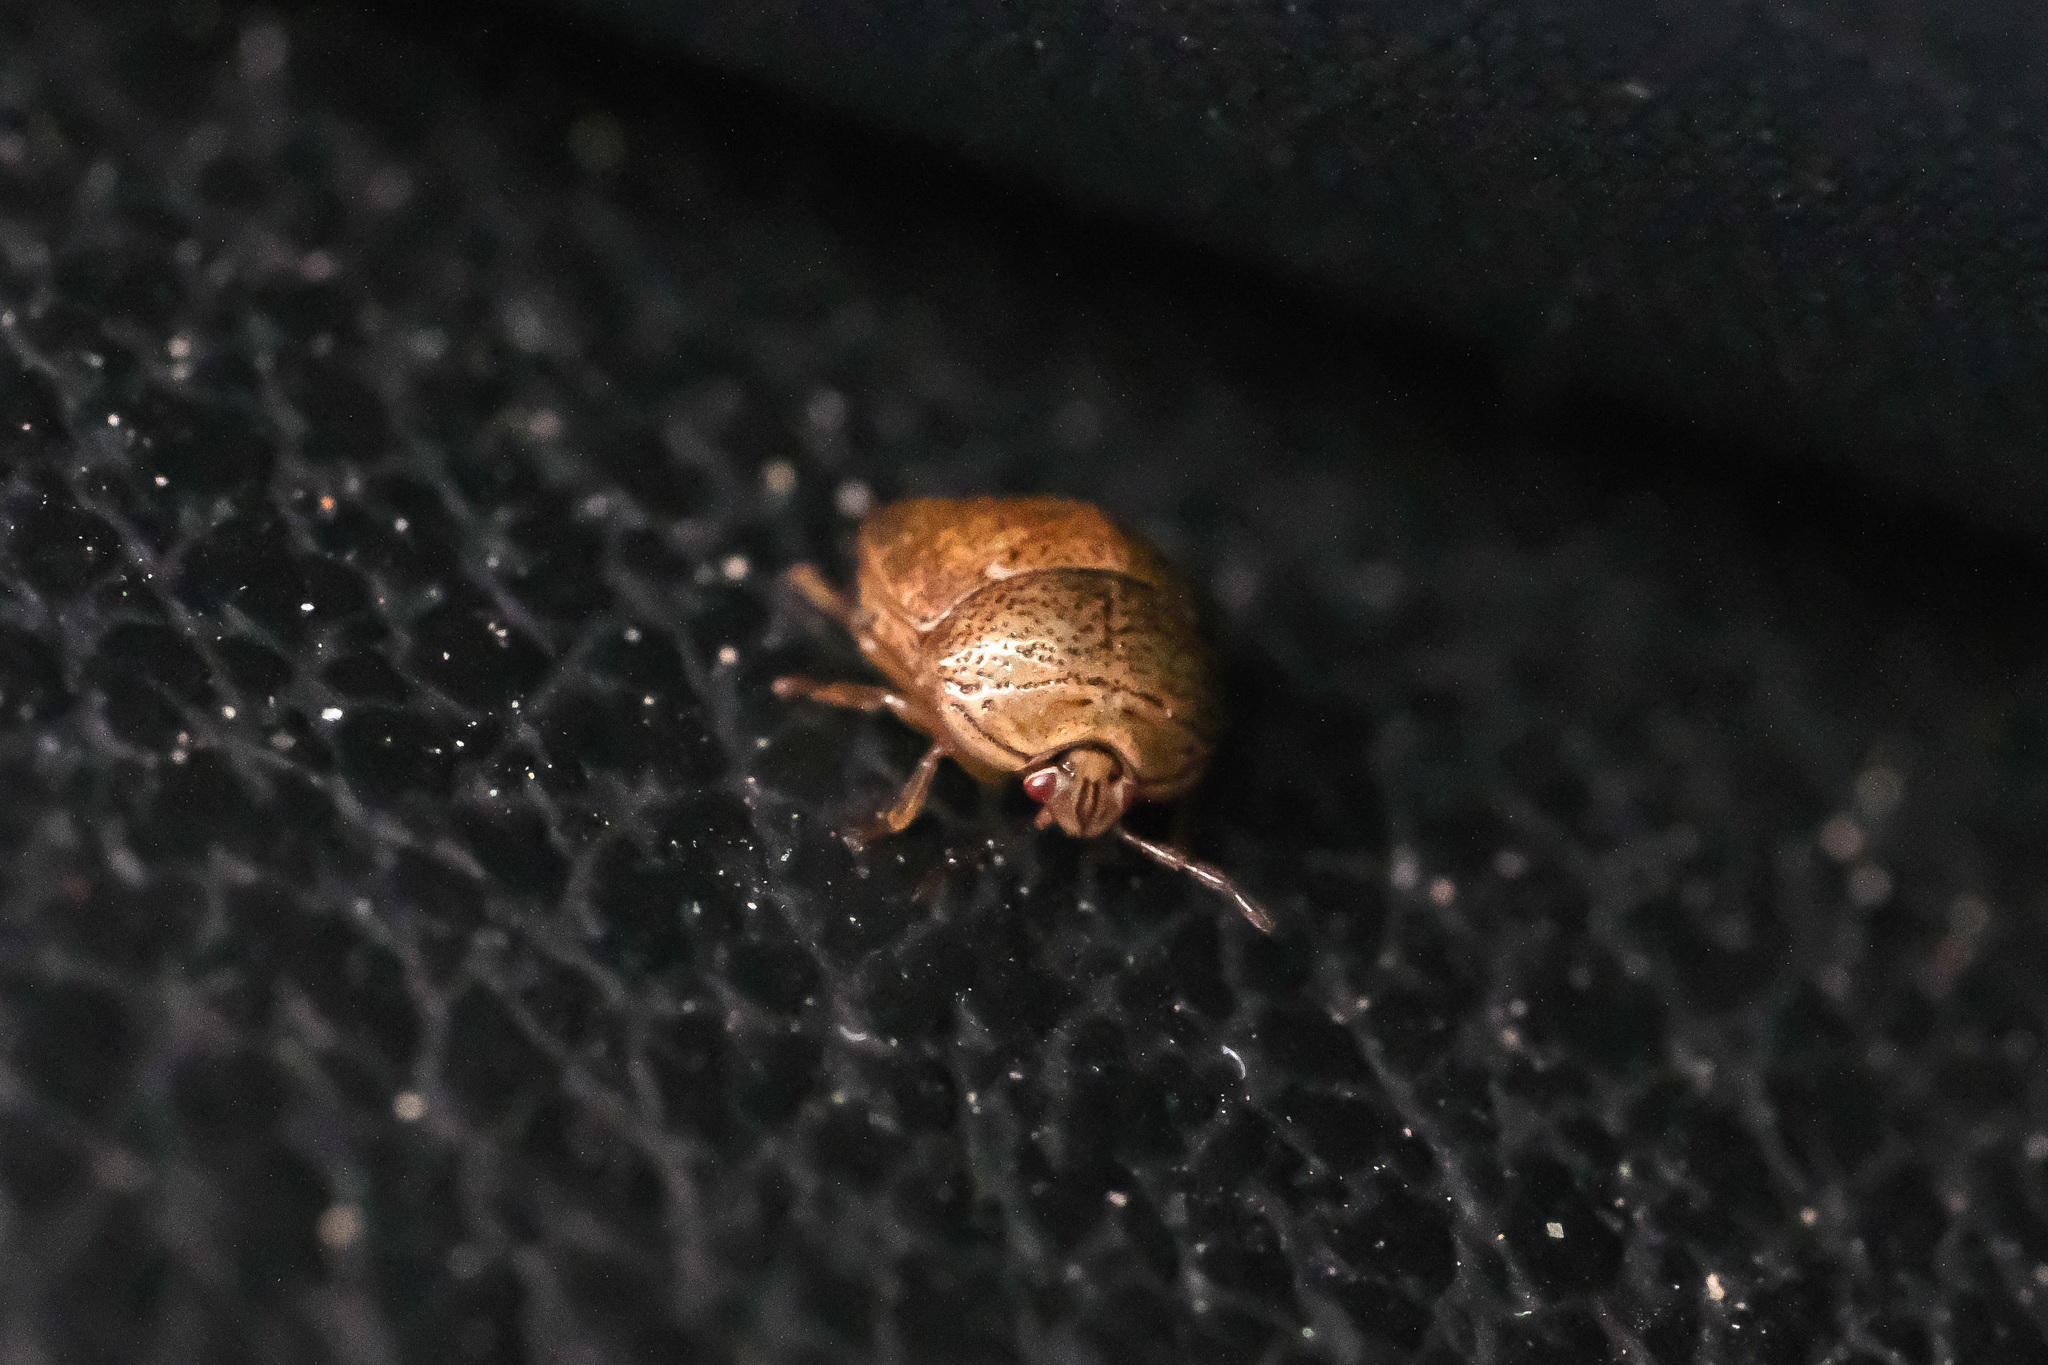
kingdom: Animalia
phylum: Arthropoda
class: Insecta
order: Hemiptera
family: Plataspidae
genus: Megacopta
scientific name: Megacopta cribraria
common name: Bean plataspid
